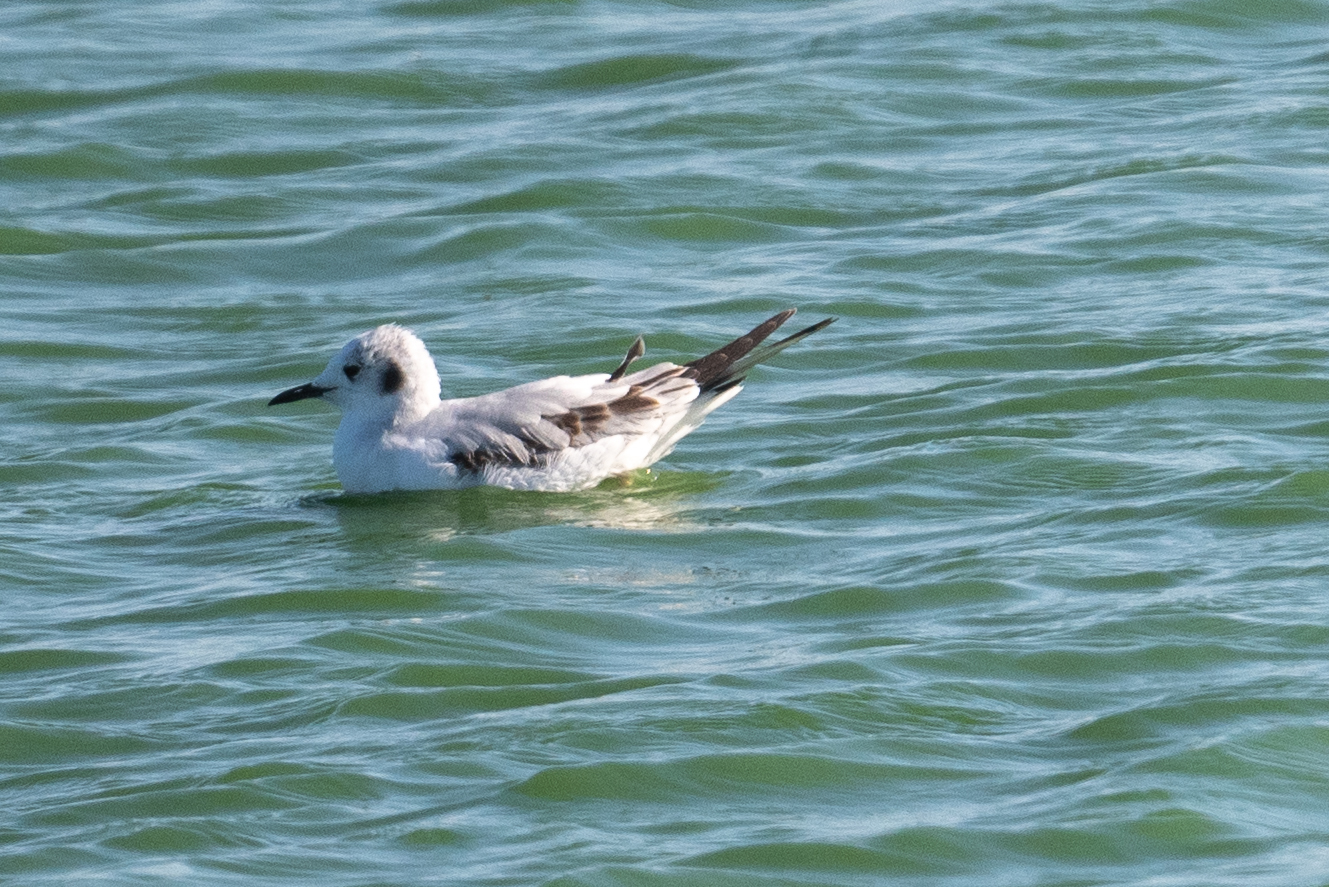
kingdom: Animalia
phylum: Chordata
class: Aves
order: Charadriiformes
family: Laridae
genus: Chroicocephalus
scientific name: Chroicocephalus philadelphia
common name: Bonaparte's gull
